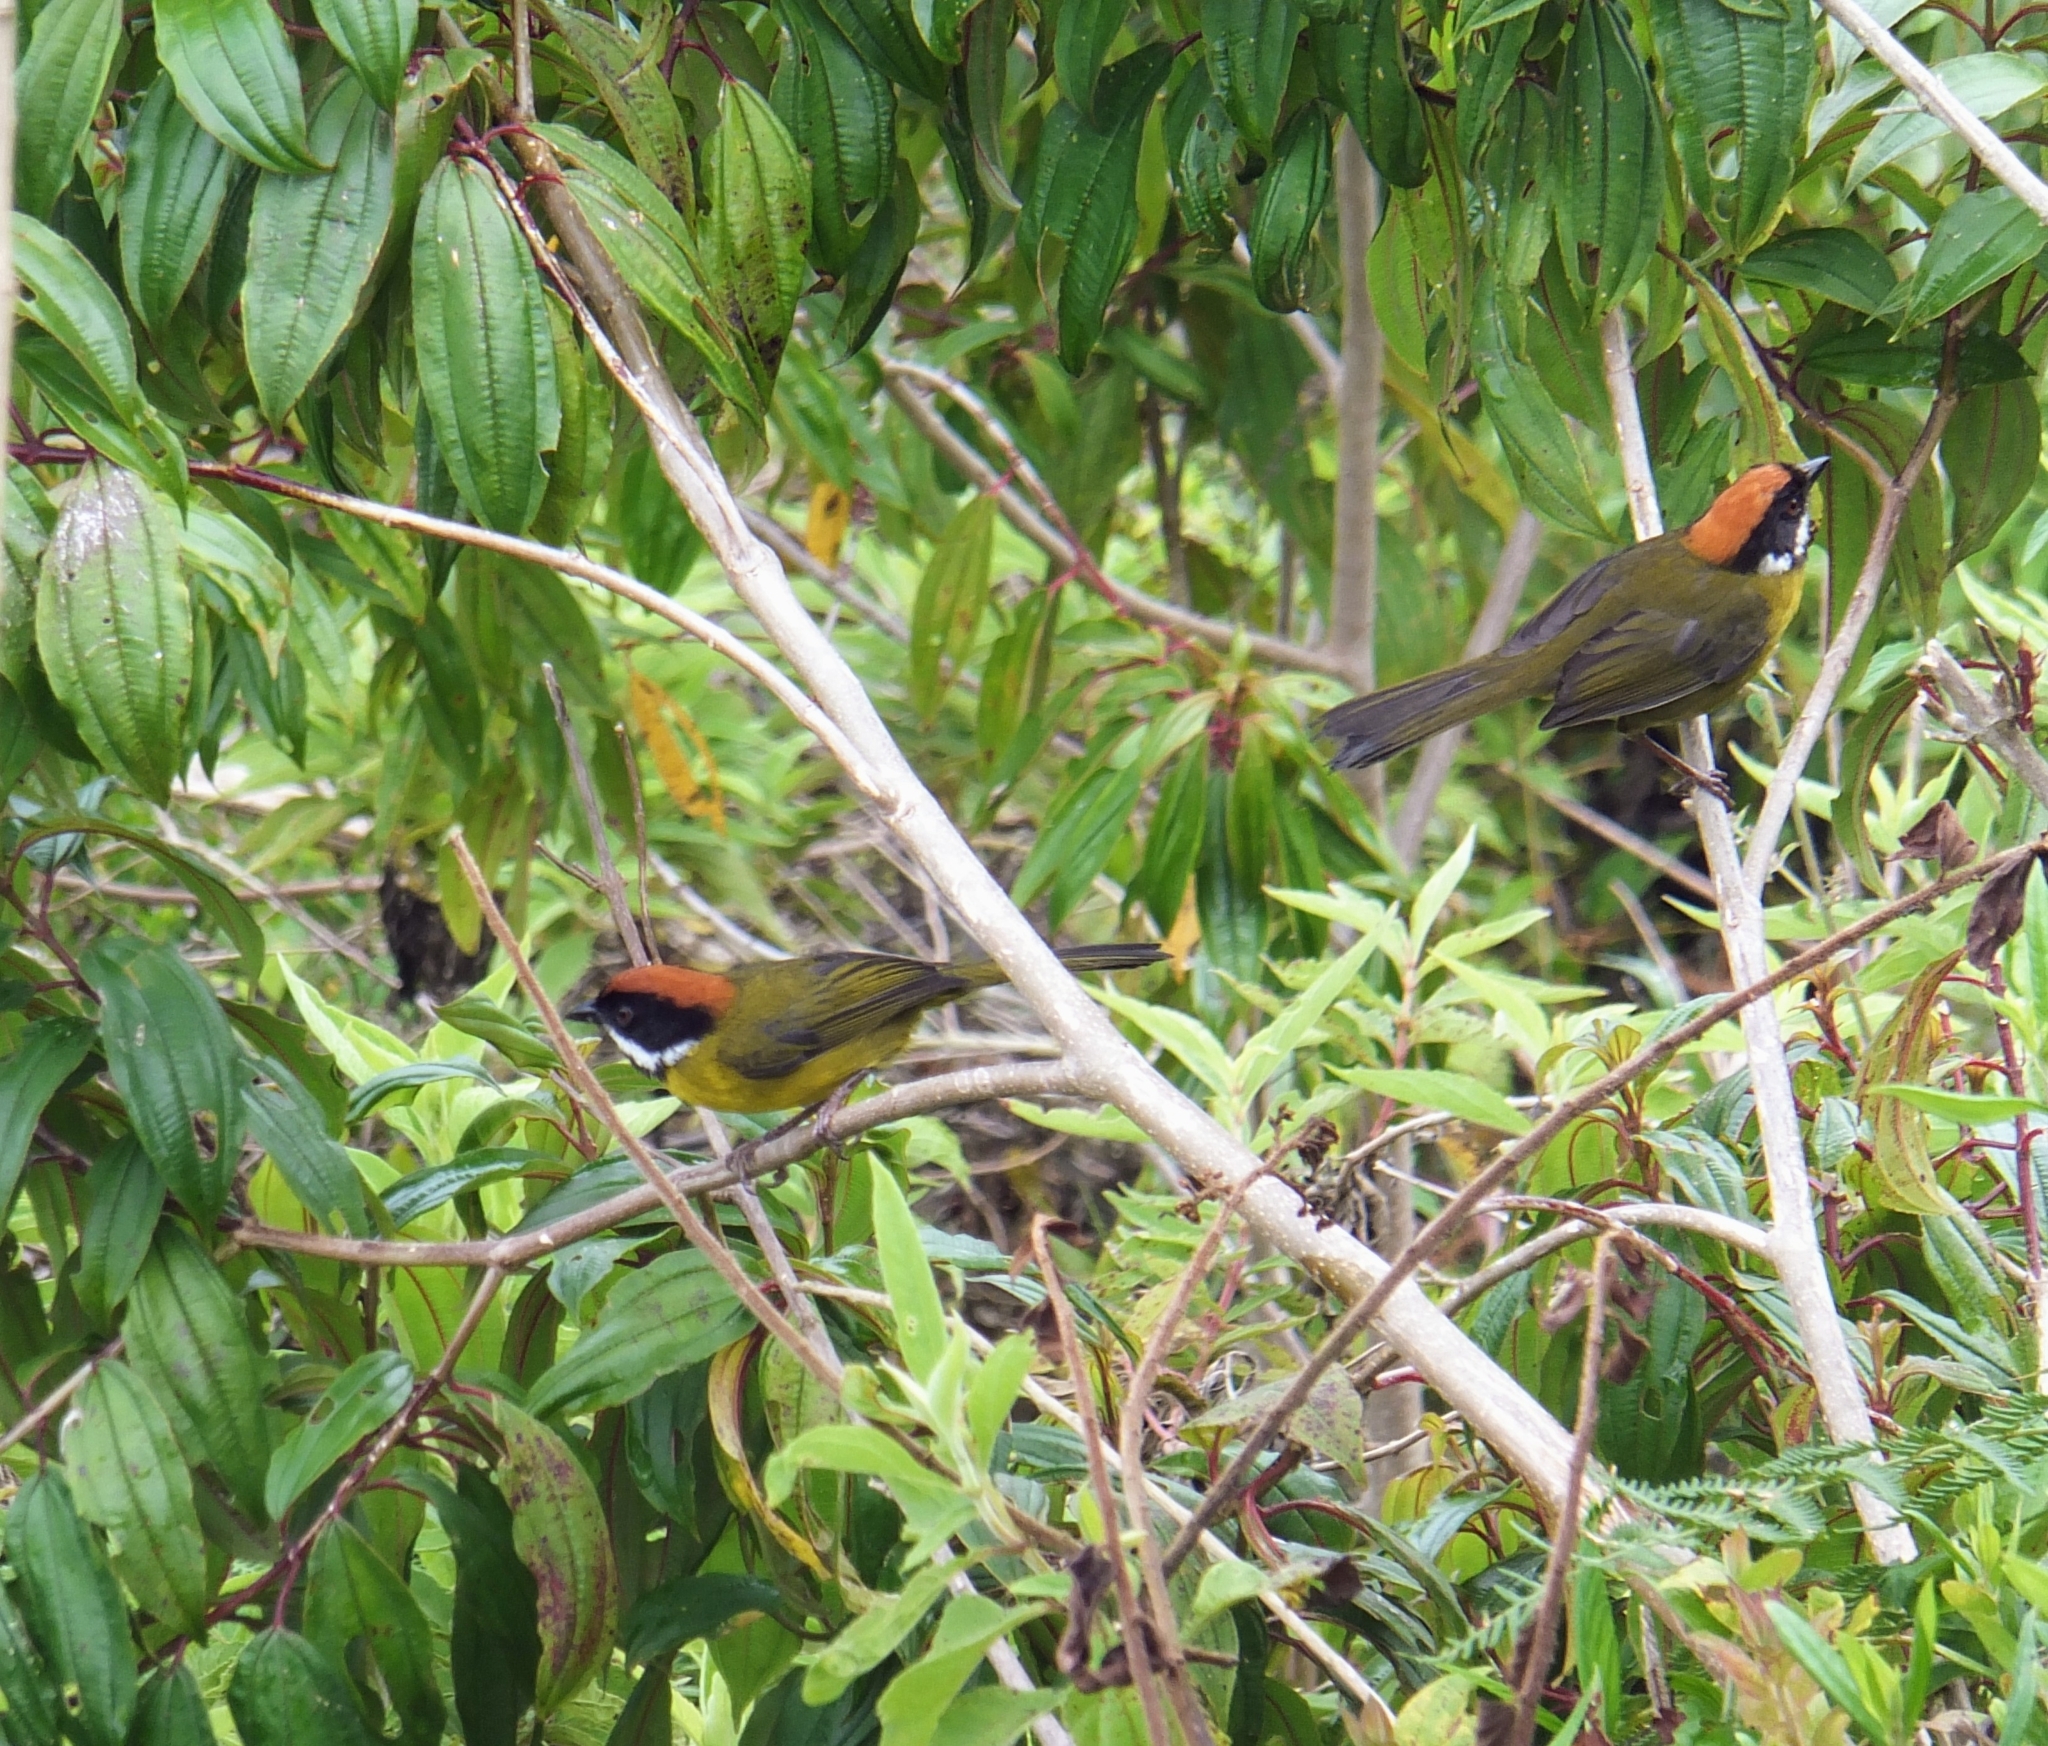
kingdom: Animalia
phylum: Chordata
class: Aves
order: Passeriformes
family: Passerellidae
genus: Atlapetes
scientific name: Atlapetes albofrenatus
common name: Moustached brushfinch
